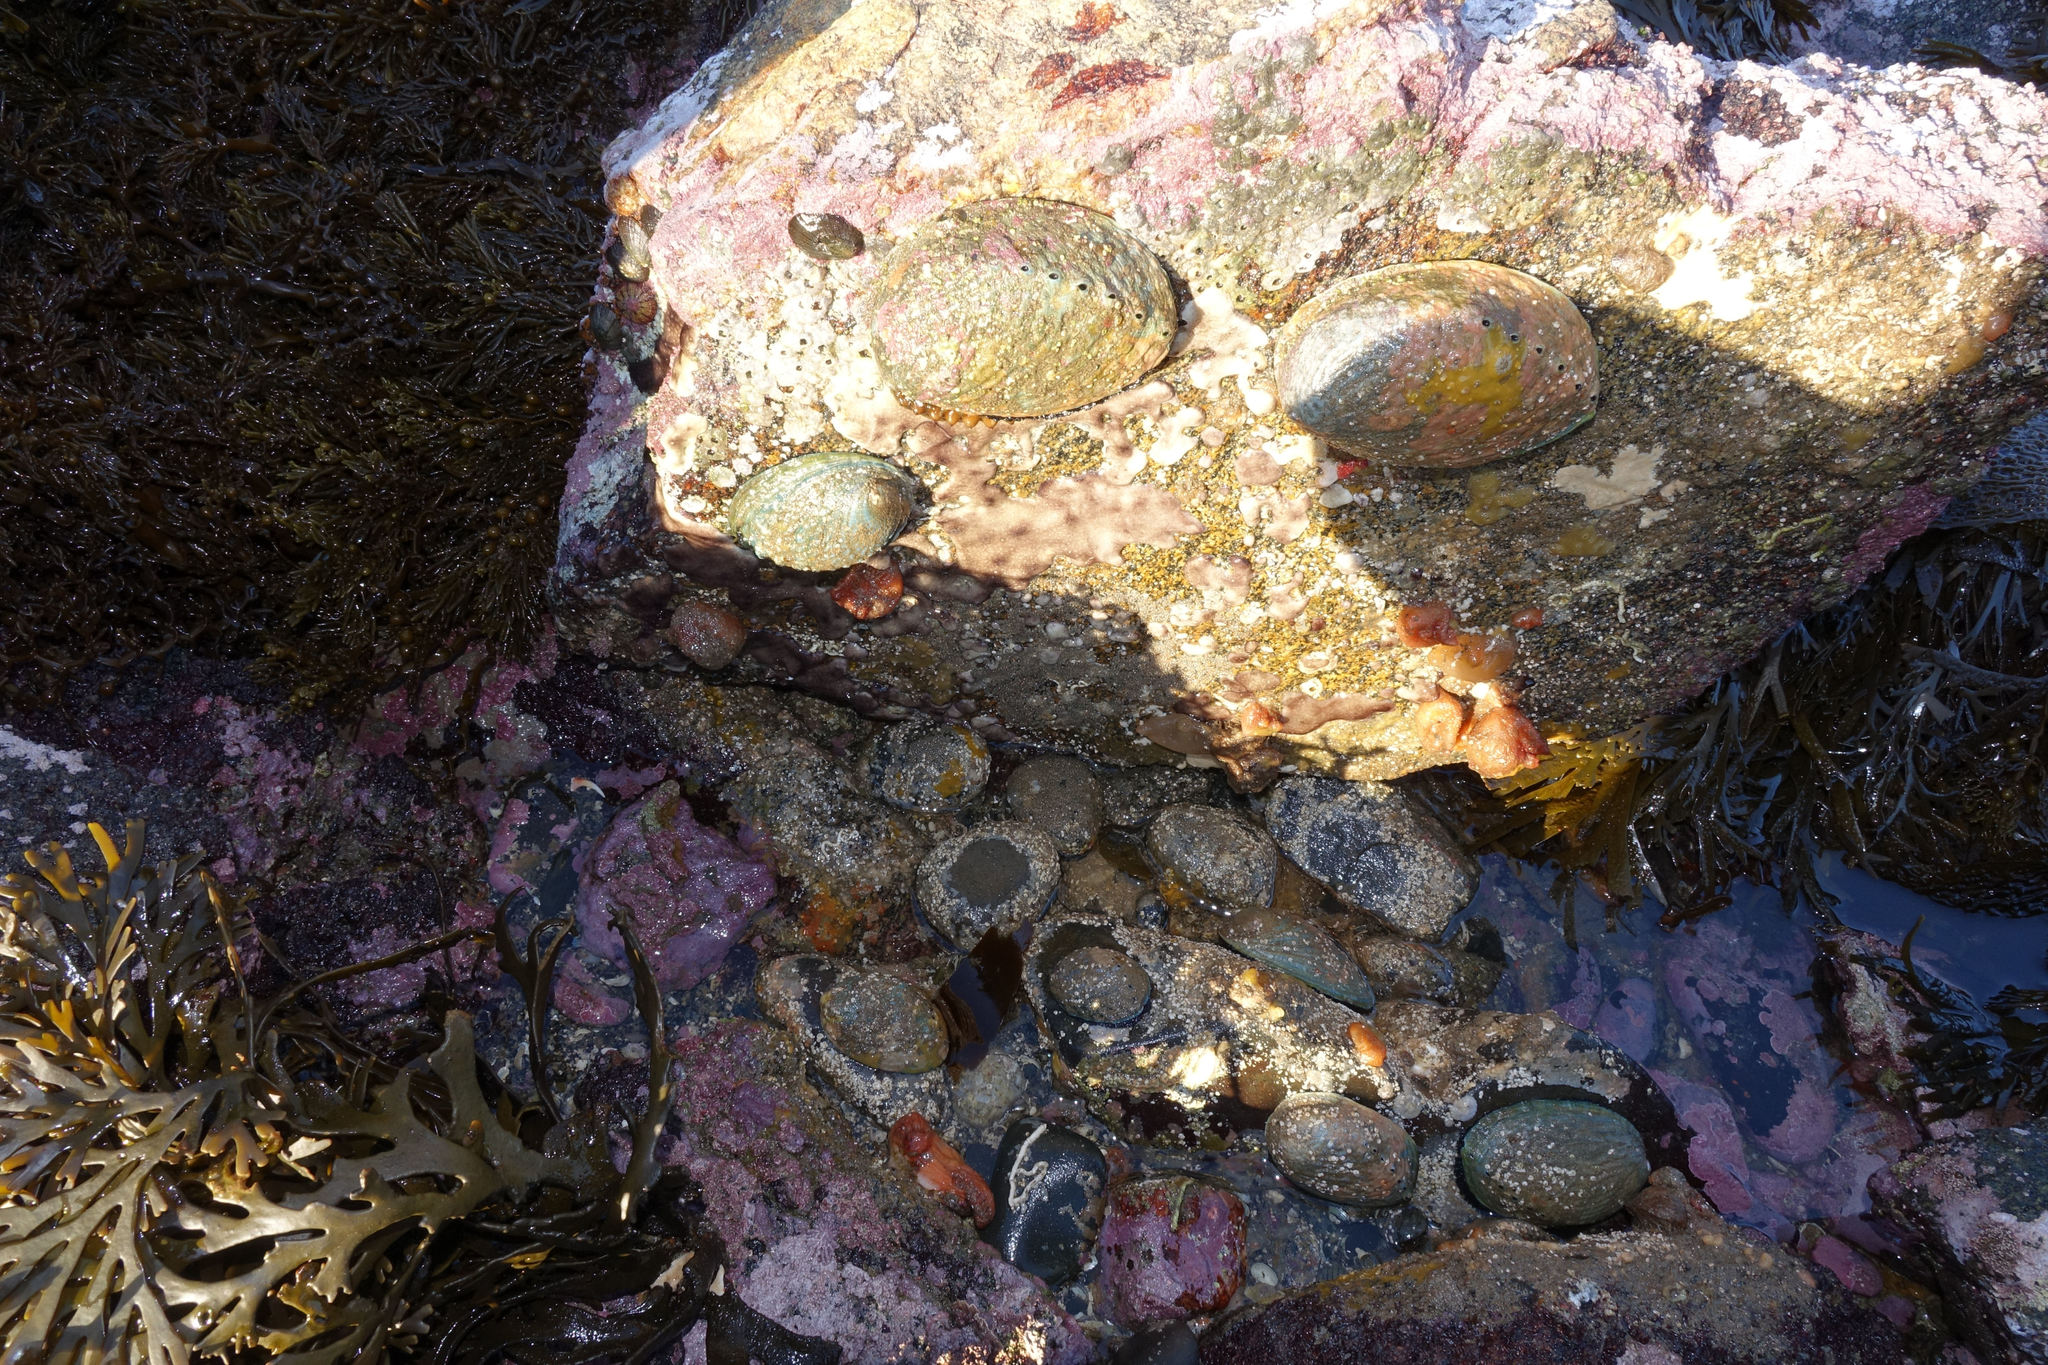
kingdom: Animalia
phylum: Mollusca
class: Gastropoda
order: Lepetellida
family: Haliotidae
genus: Haliotis
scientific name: Haliotis iris
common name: Abalone
